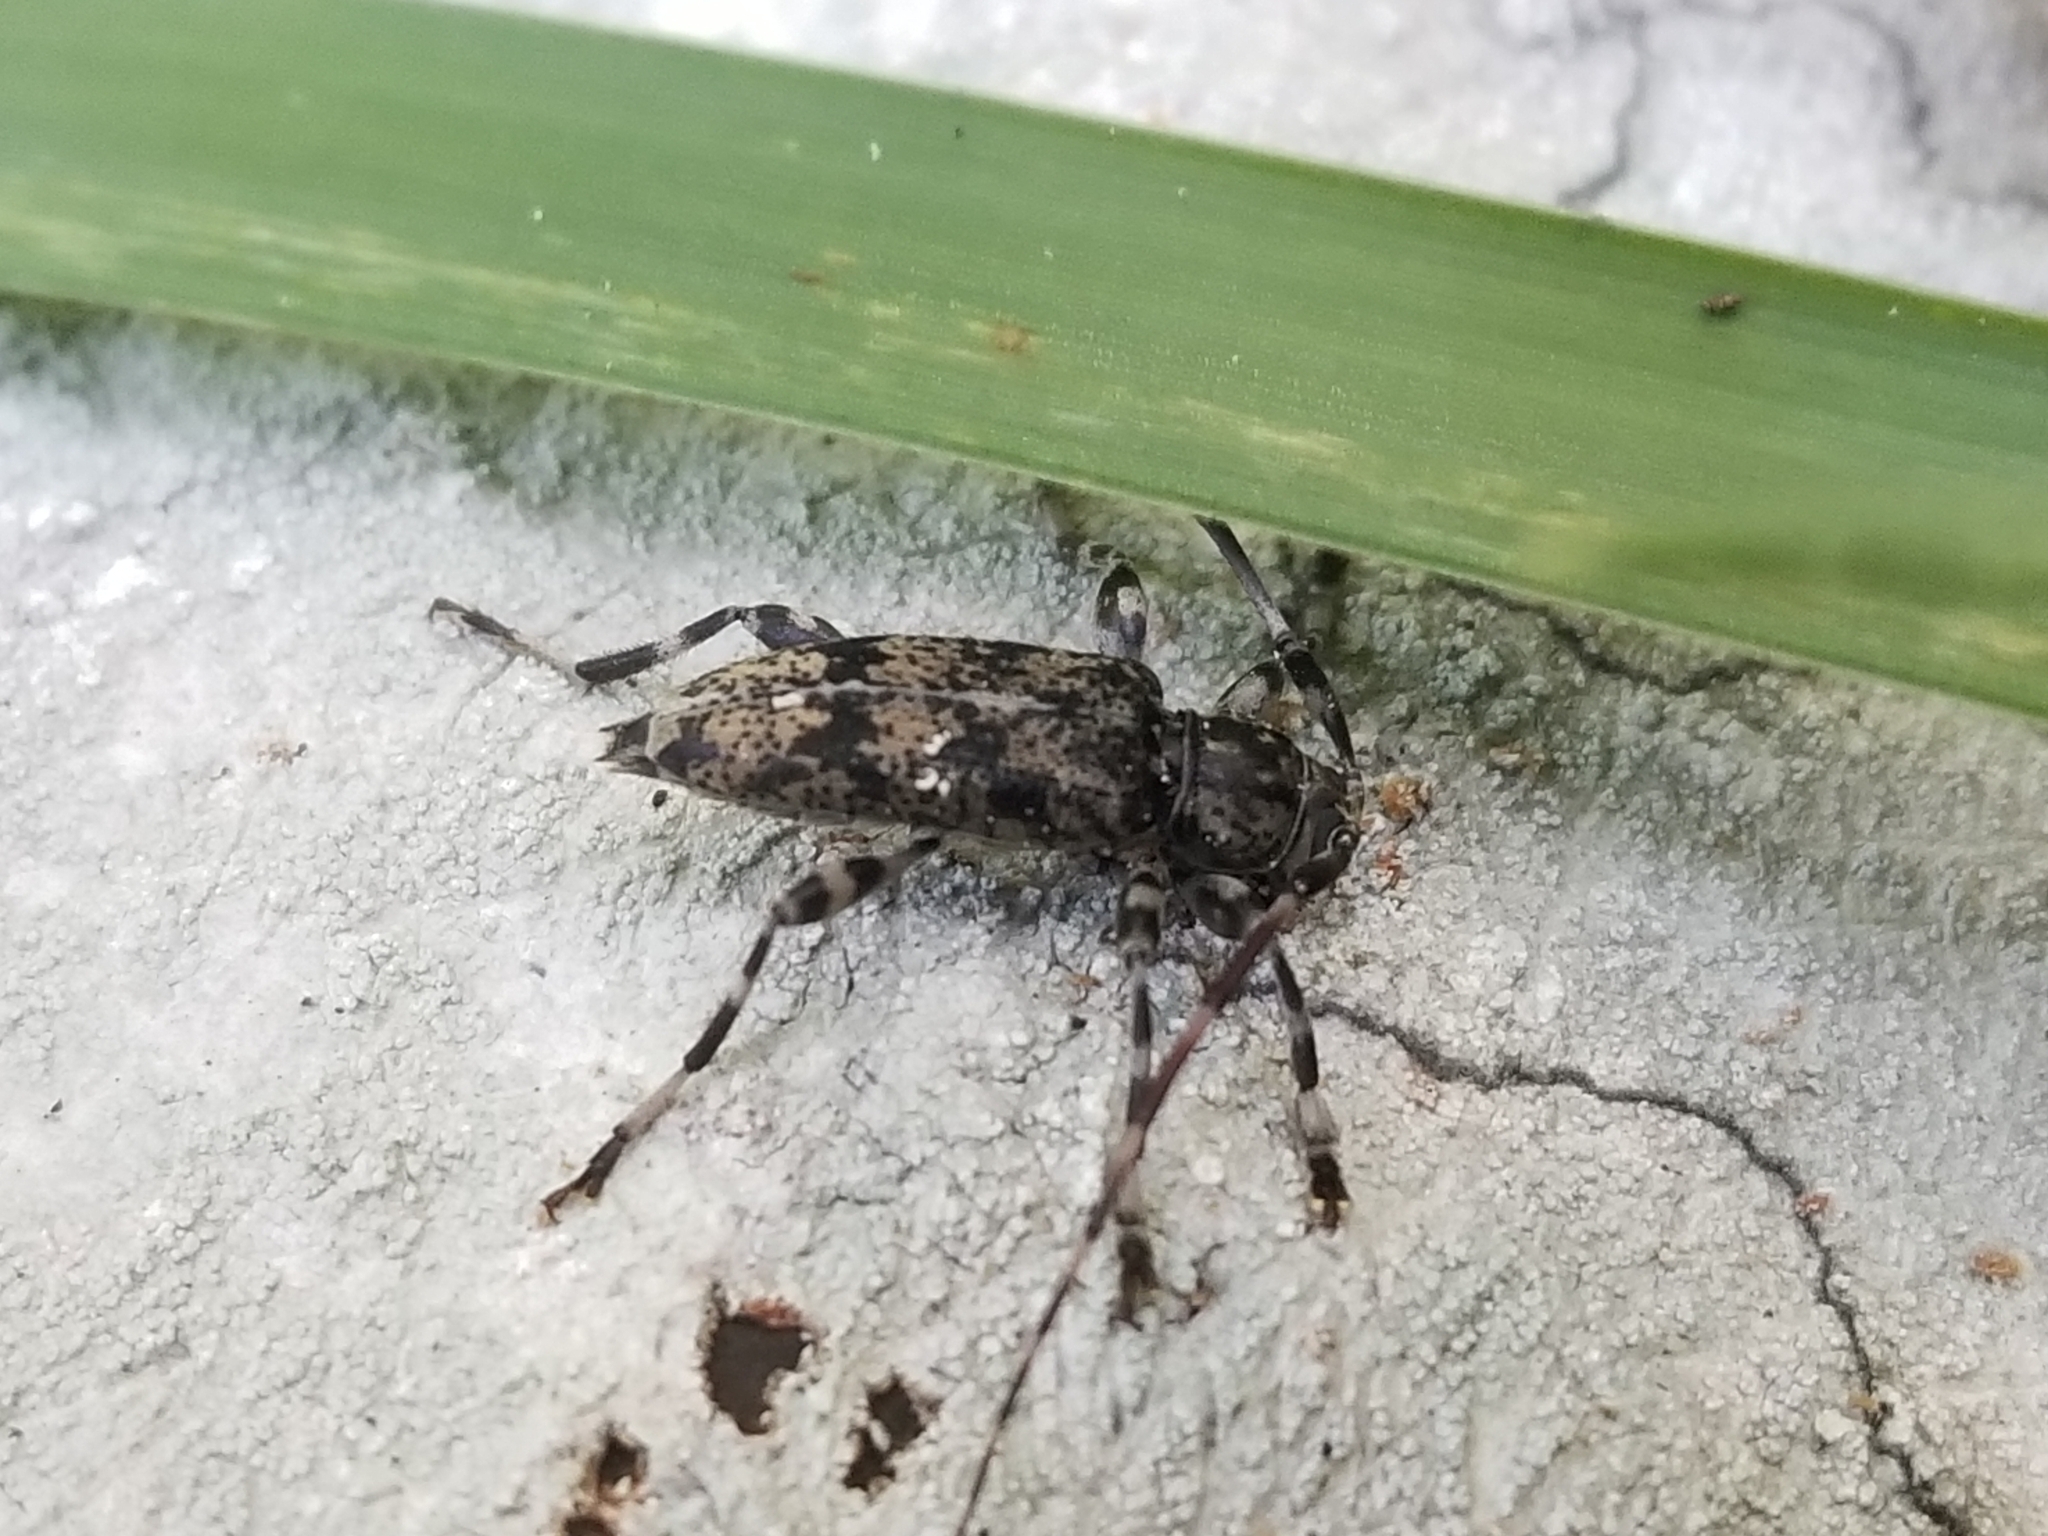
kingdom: Animalia
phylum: Arthropoda
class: Insecta
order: Coleoptera
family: Cerambycidae
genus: Graphisurus
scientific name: Graphisurus fasciatus
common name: Banded graphisurus
